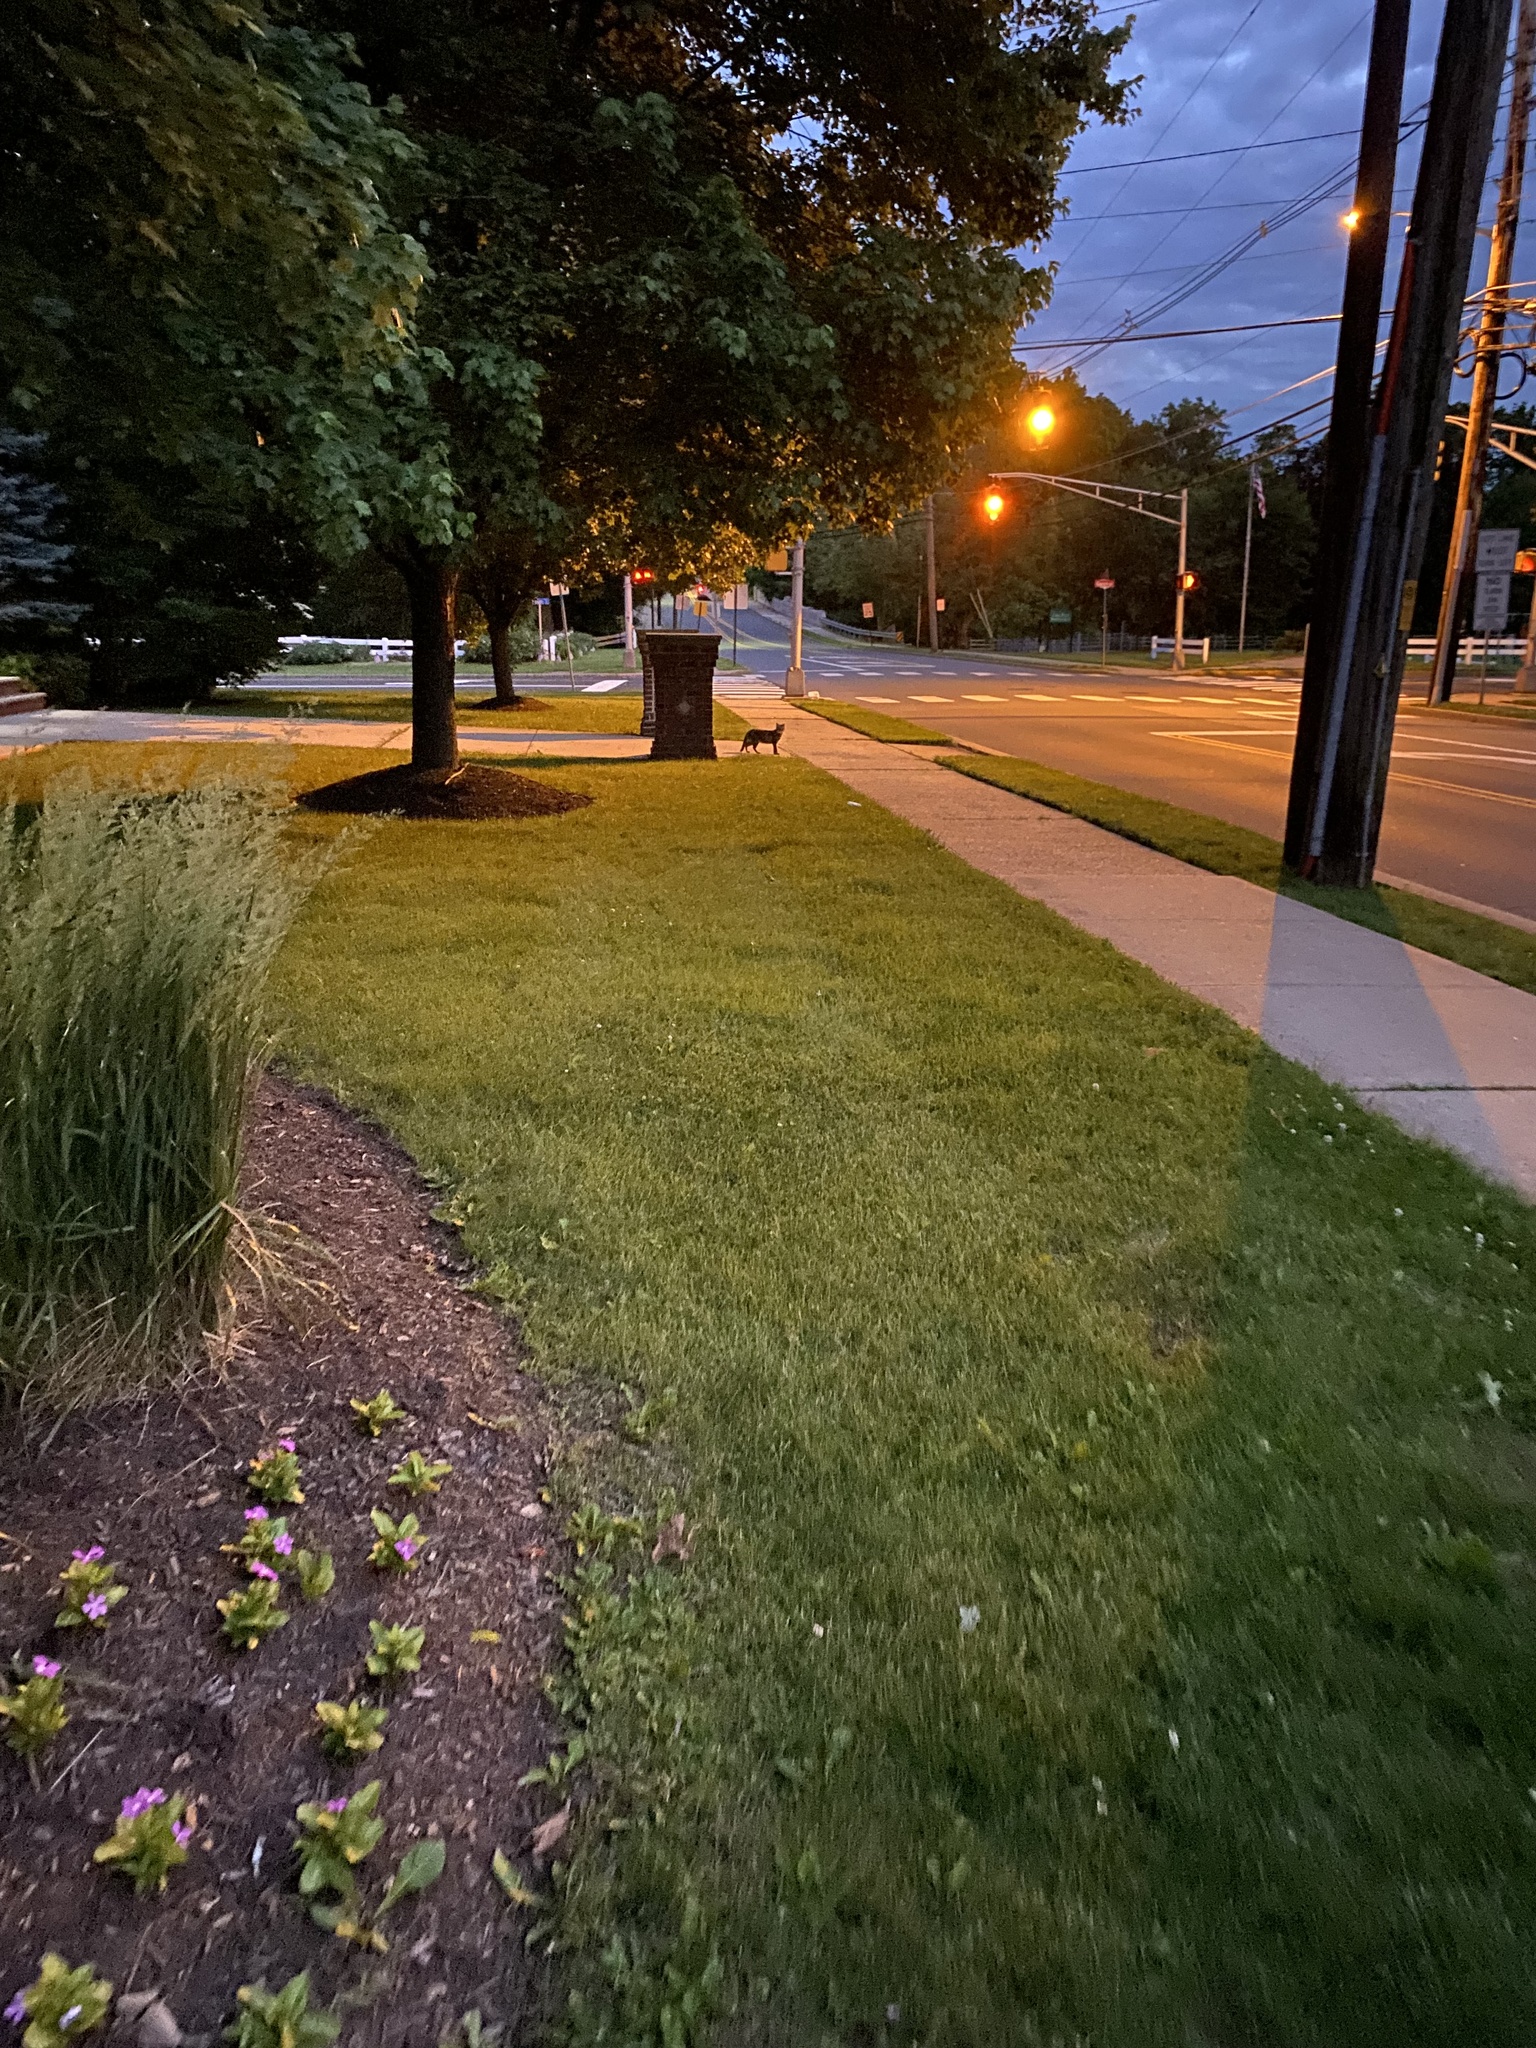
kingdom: Animalia
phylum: Chordata
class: Mammalia
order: Carnivora
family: Felidae
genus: Felis
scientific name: Felis catus
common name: Domestic cat
